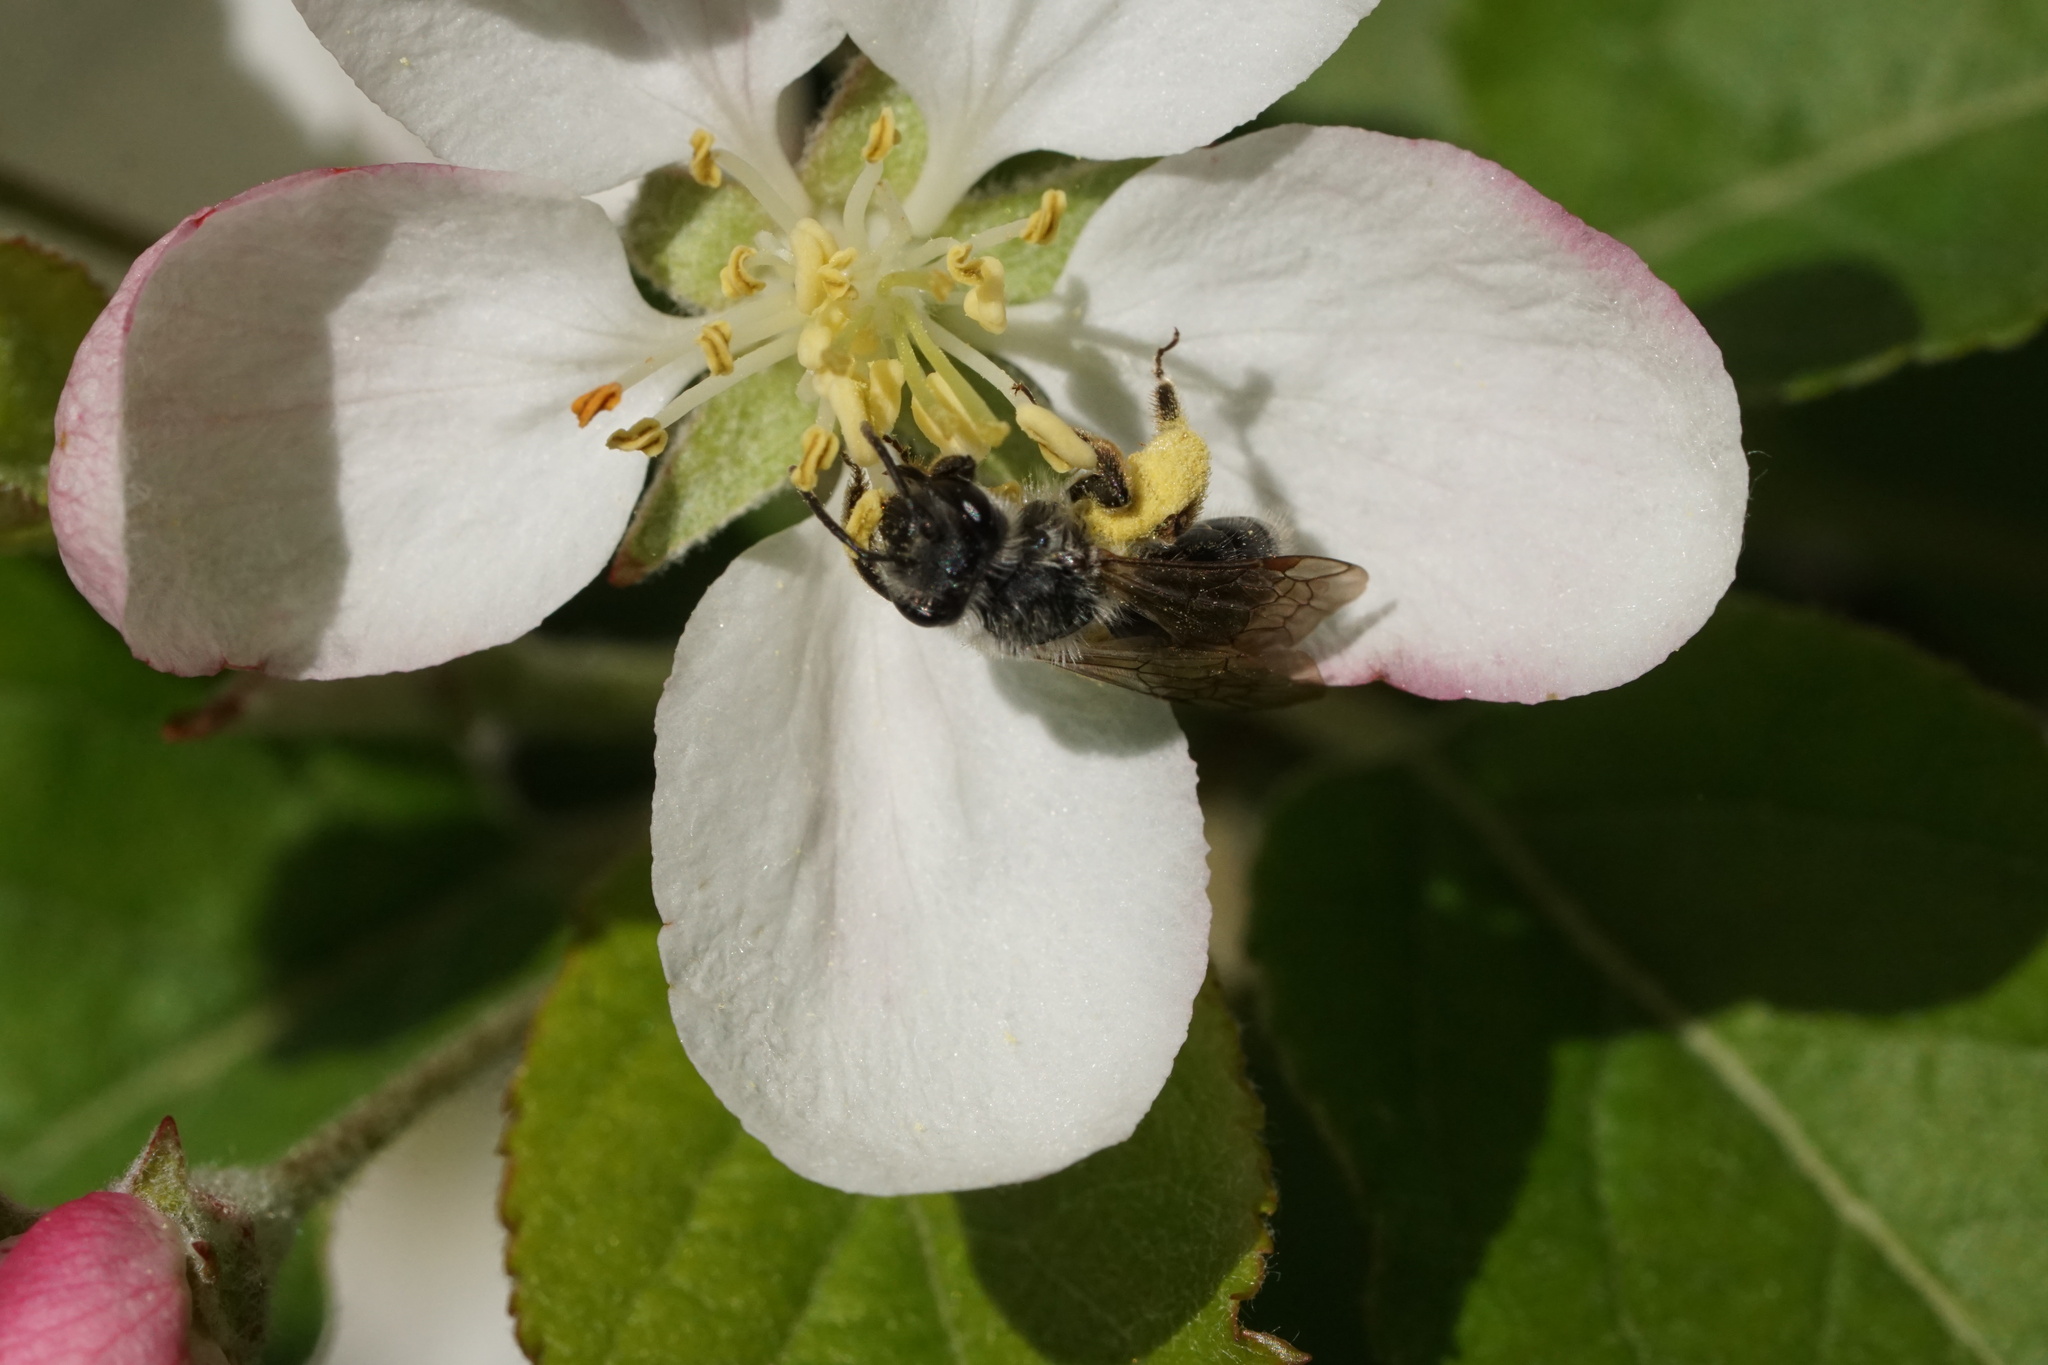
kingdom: Animalia
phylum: Arthropoda
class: Insecta
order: Hymenoptera
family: Andrenidae
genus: Andrena
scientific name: Andrena tridens
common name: Trident miner bee
